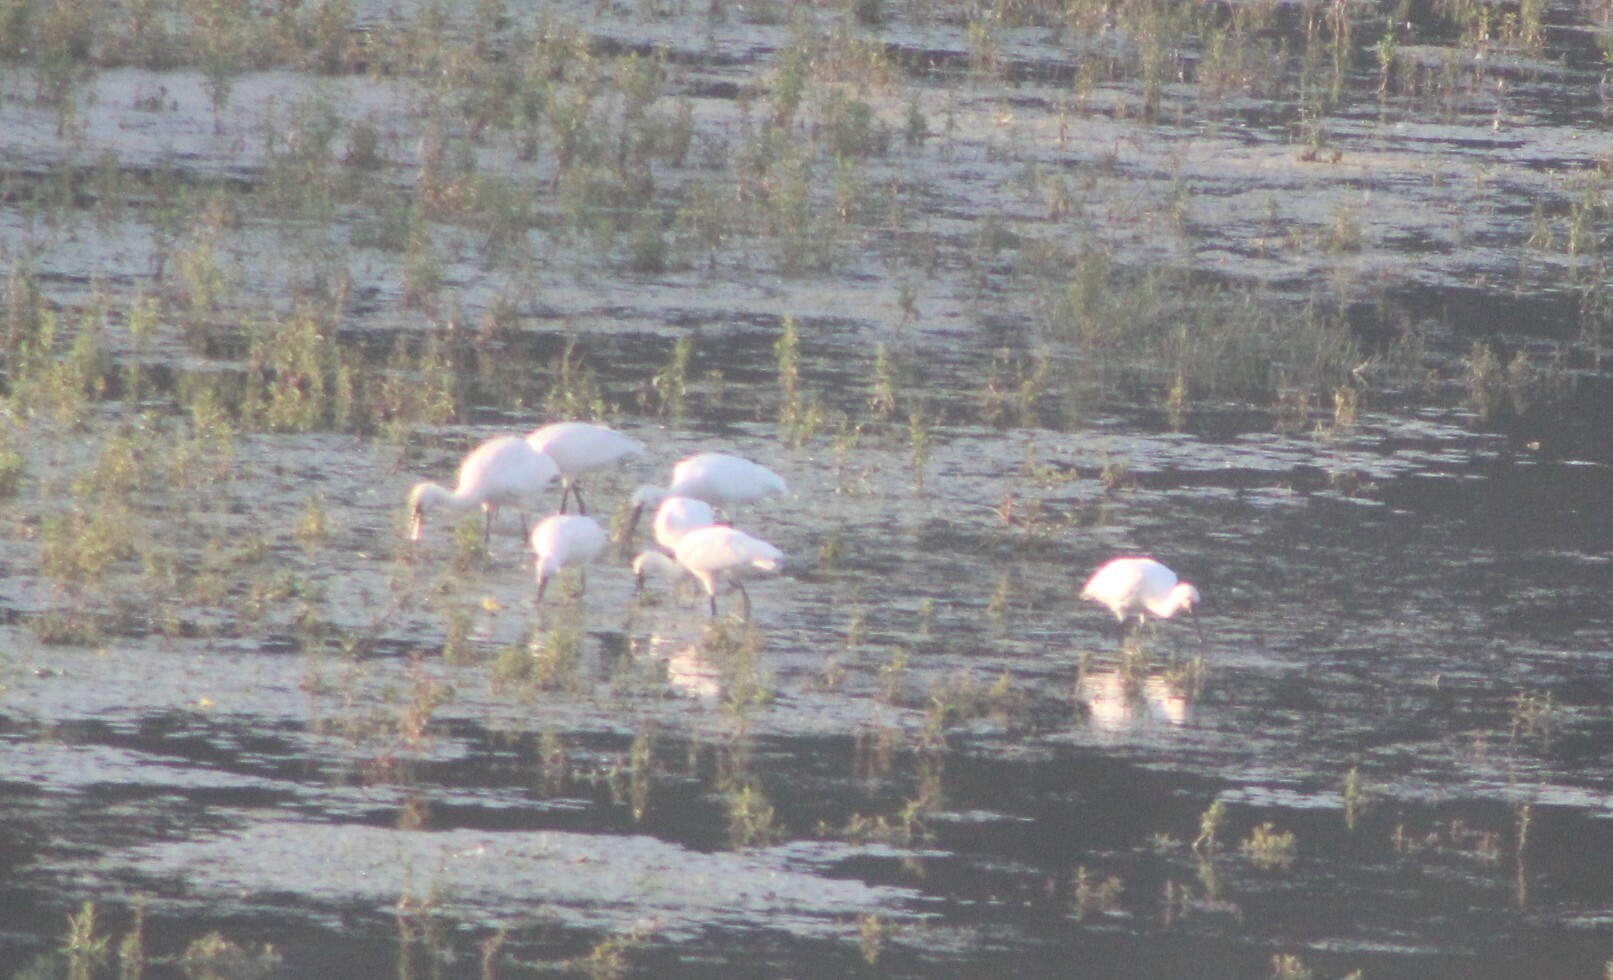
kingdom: Animalia
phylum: Chordata
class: Aves
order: Pelecaniformes
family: Threskiornithidae
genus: Platalea
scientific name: Platalea leucorodia
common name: Eurasian spoonbill
